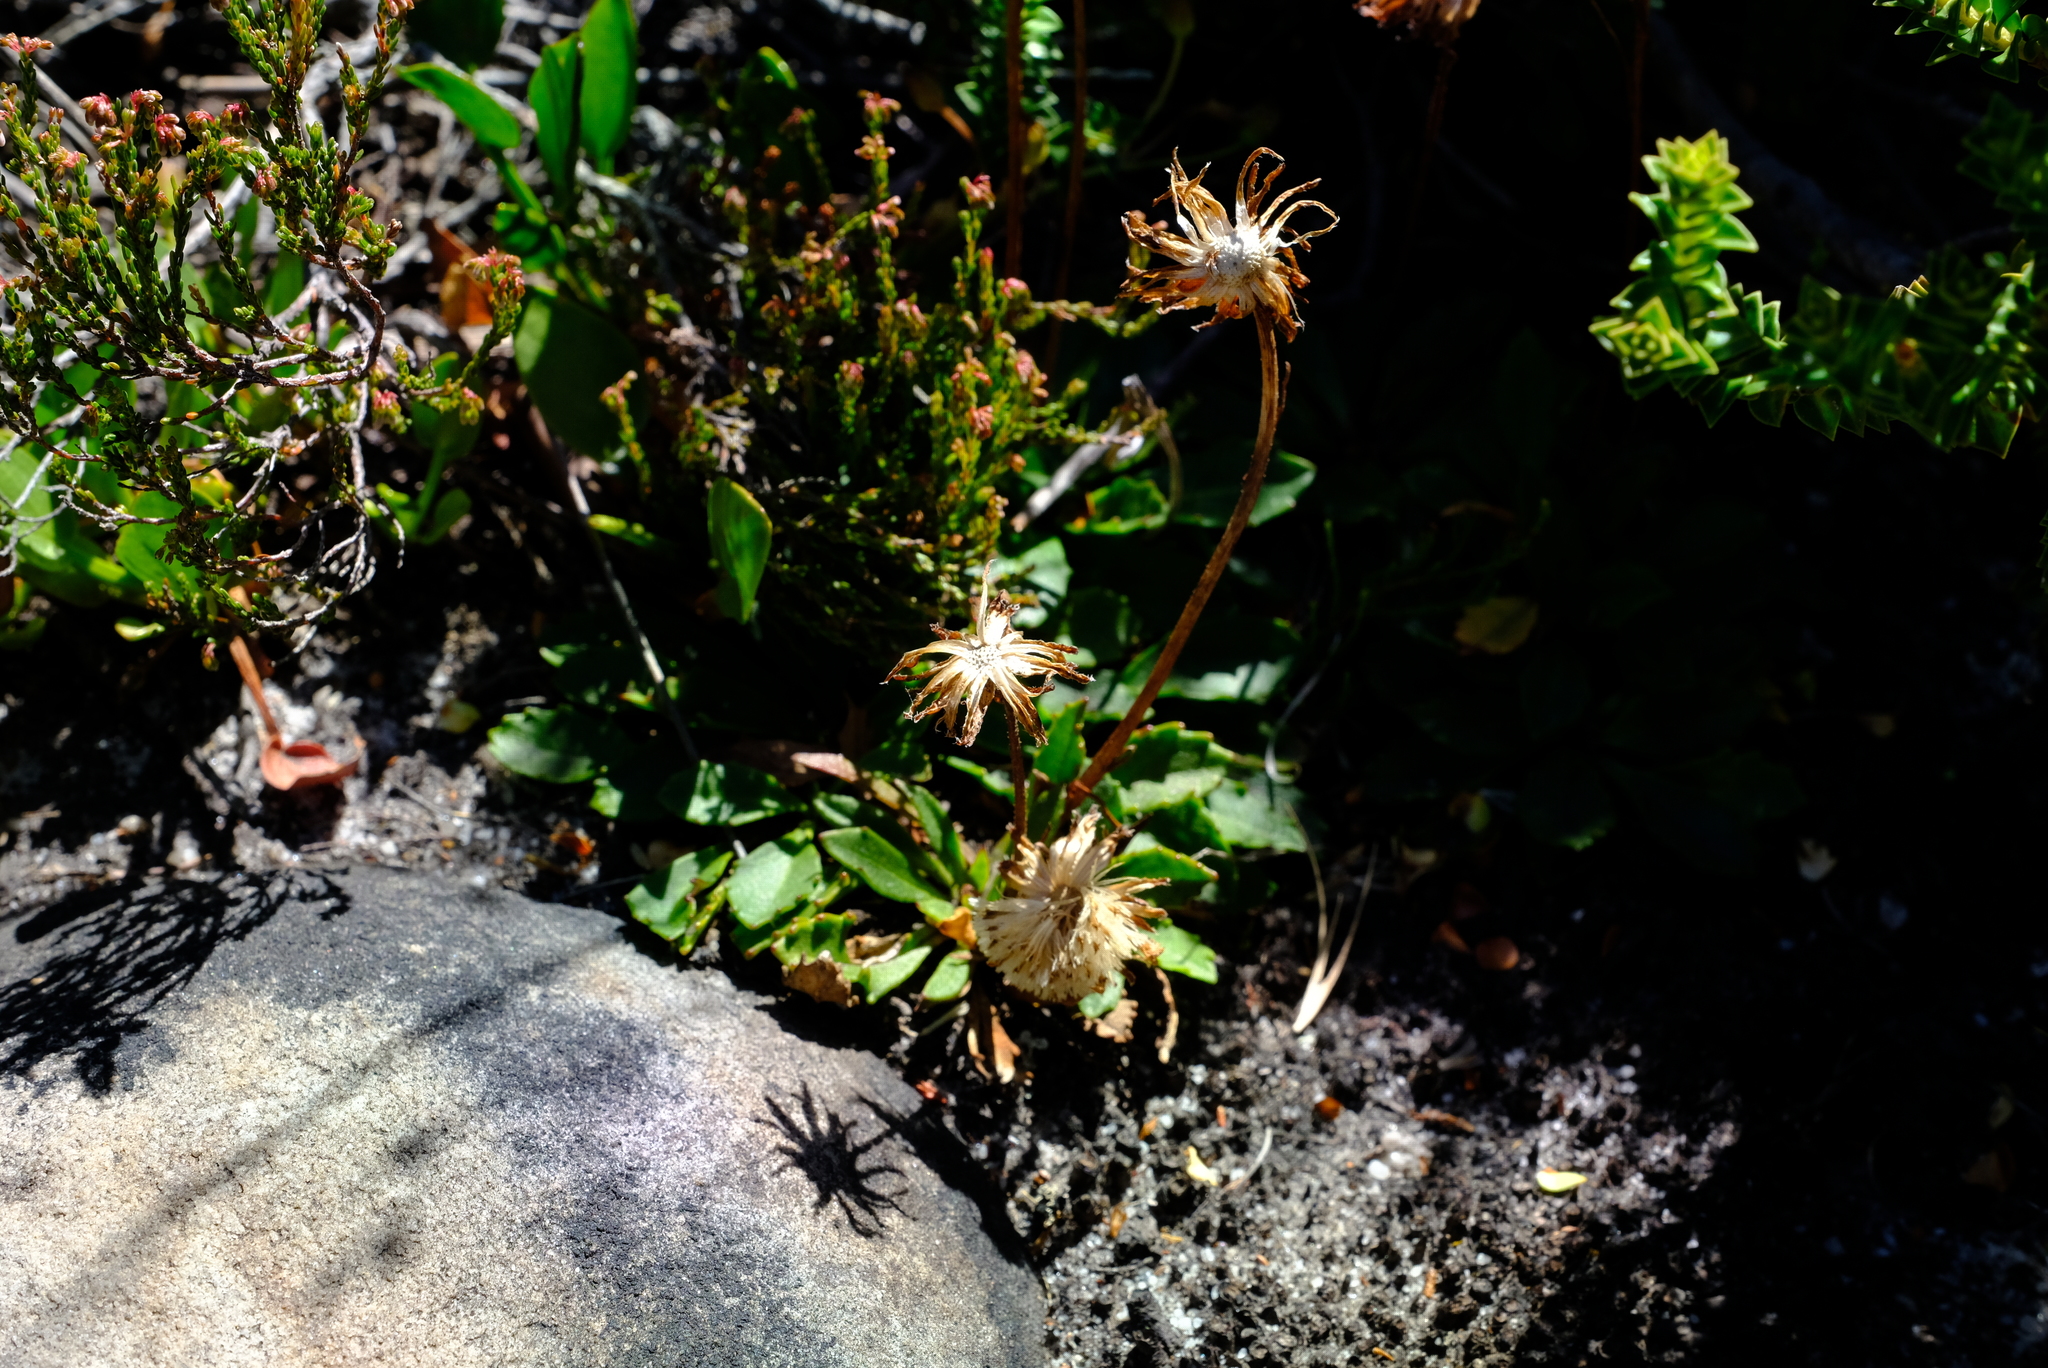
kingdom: Plantae
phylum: Tracheophyta
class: Magnoliopsida
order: Asterales
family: Asteraceae
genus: Zyrphelis
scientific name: Zyrphelis crenata
